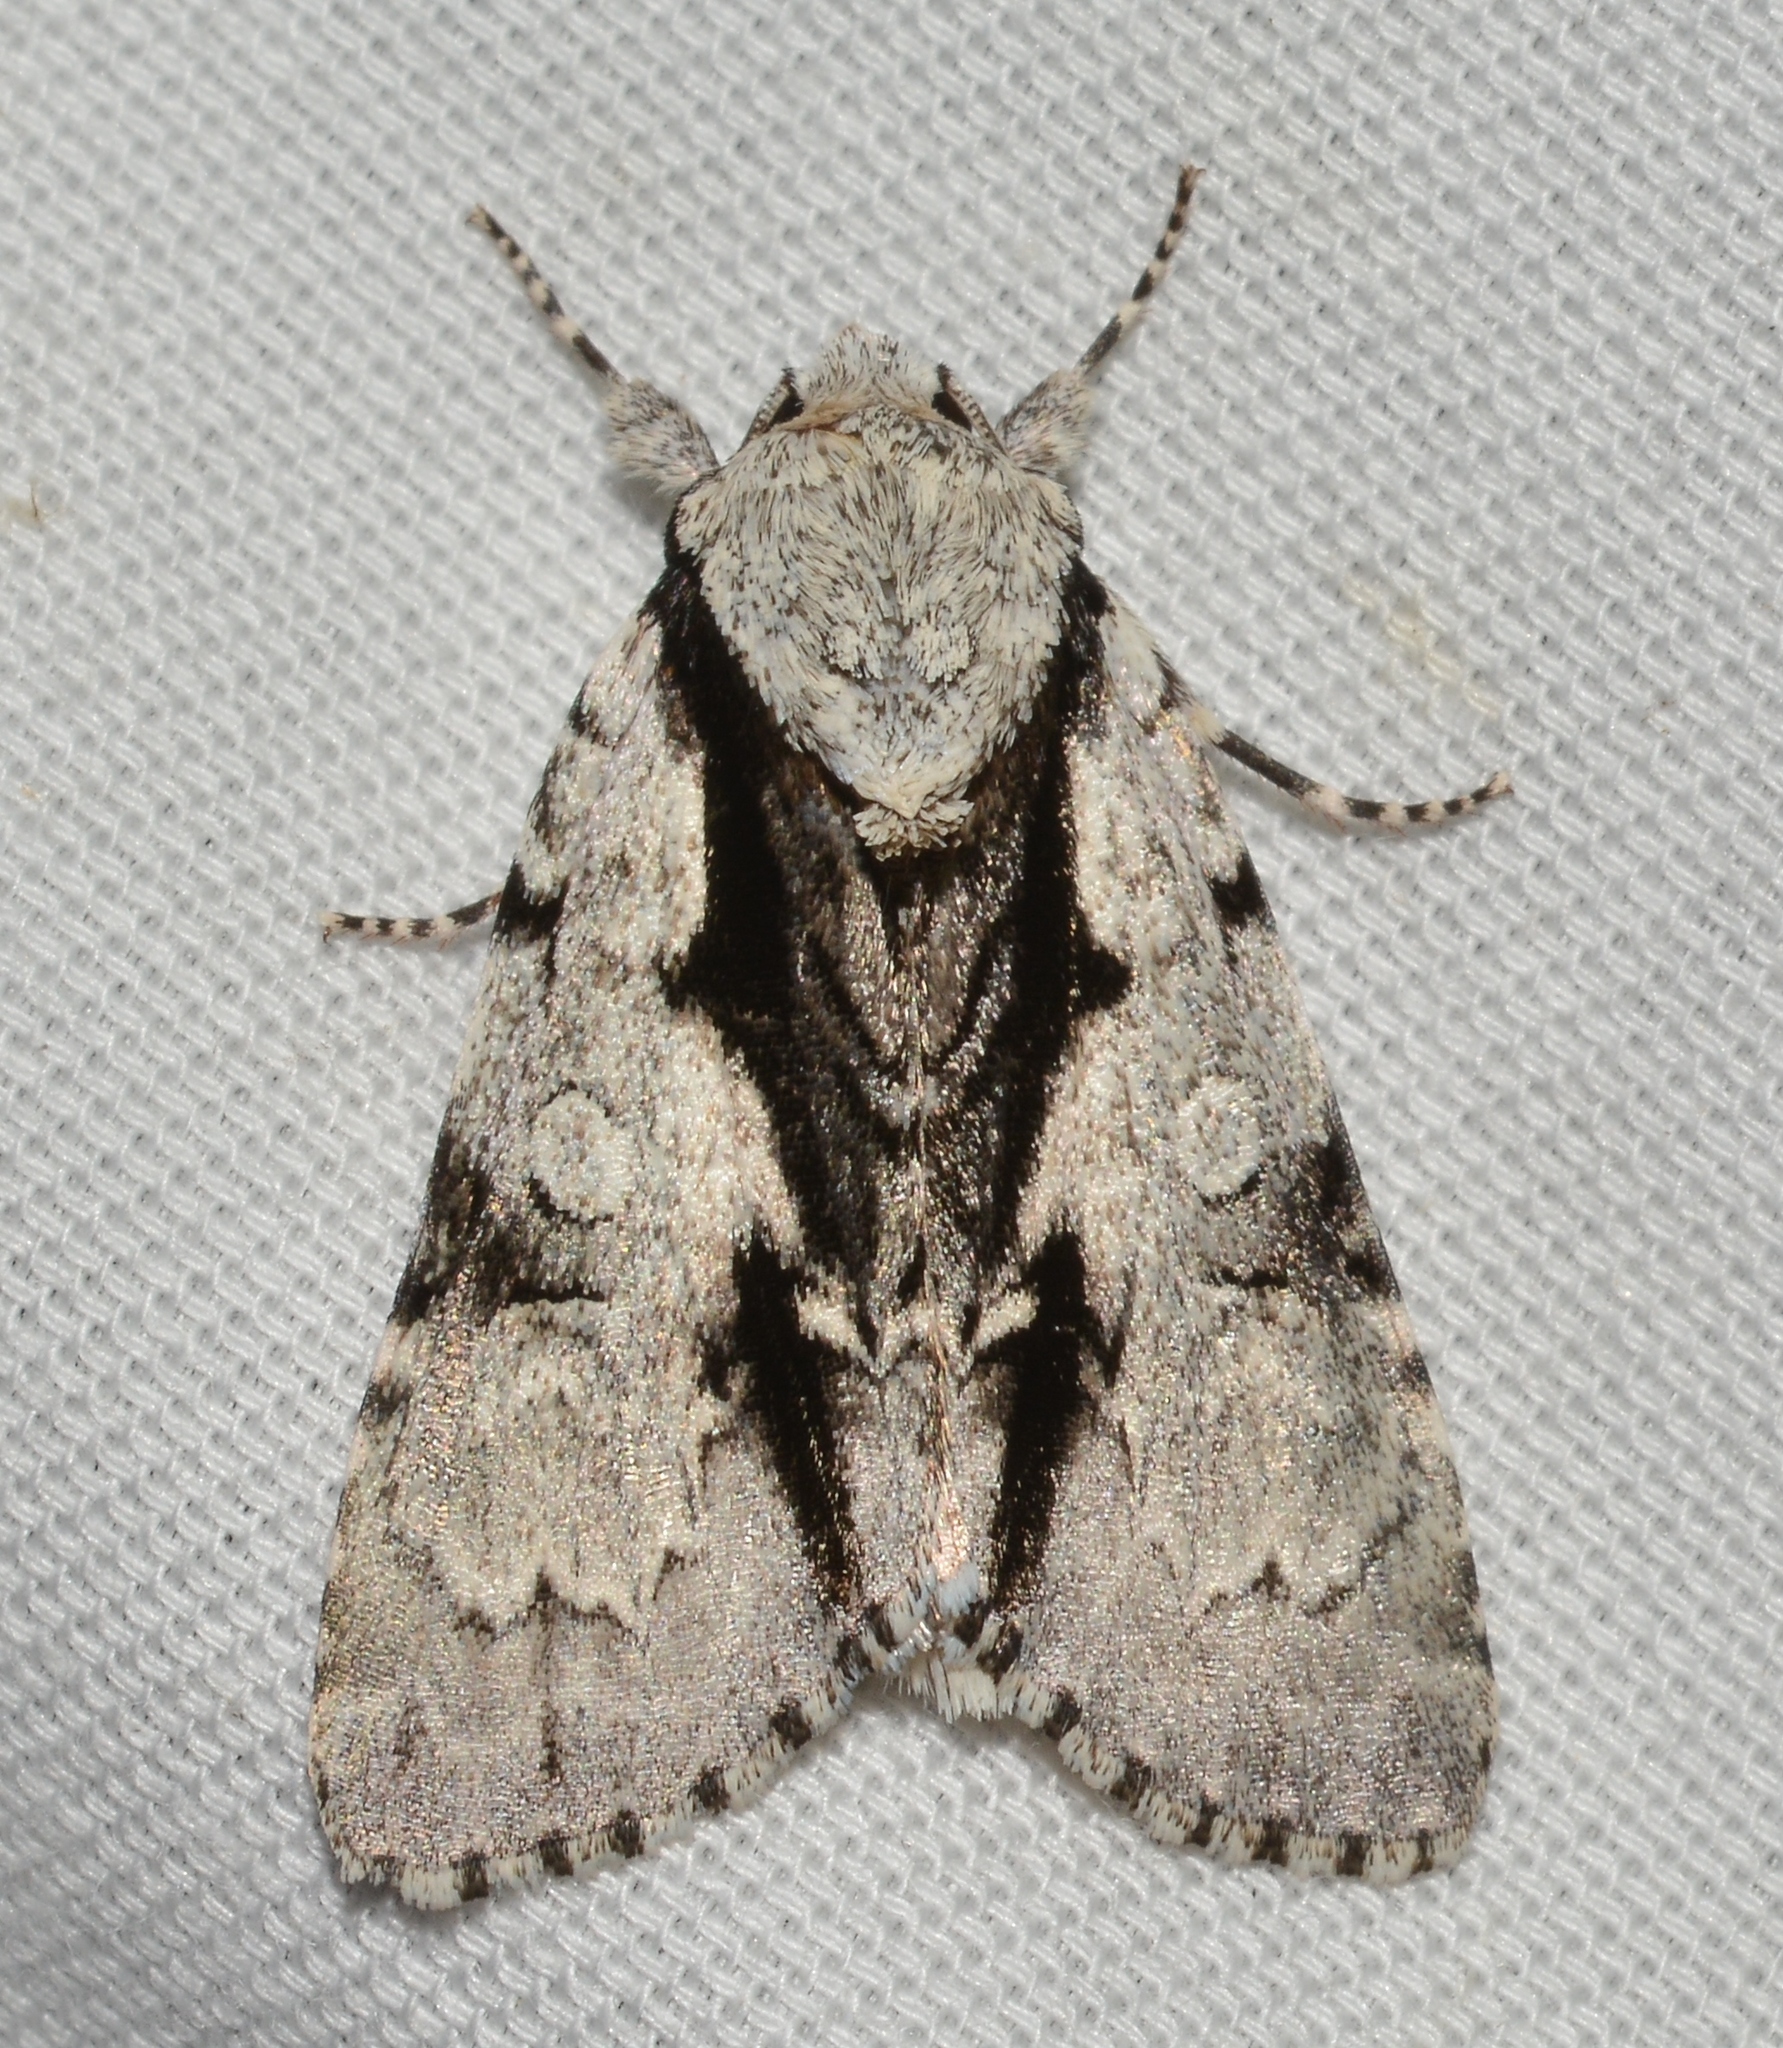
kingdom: Animalia
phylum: Arthropoda
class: Insecta
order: Lepidoptera
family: Noctuidae
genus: Acronicta
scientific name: Acronicta funeralis
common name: Funerary dagger
